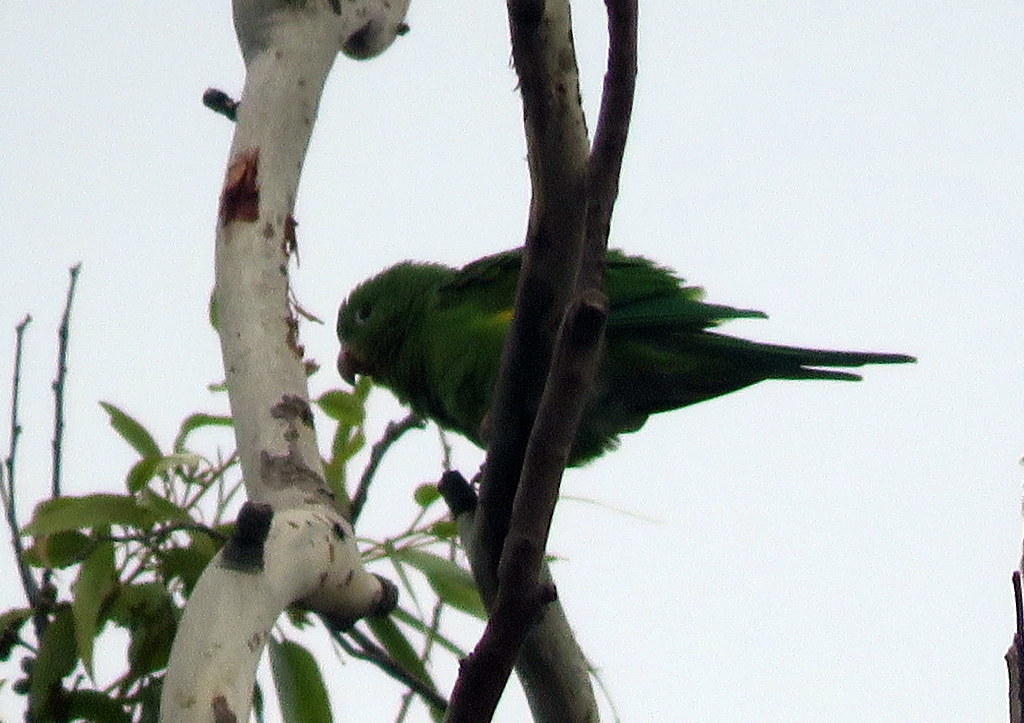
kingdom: Animalia
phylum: Chordata
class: Aves
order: Psittaciformes
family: Psittacidae
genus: Brotogeris
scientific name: Brotogeris chiriri
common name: Yellow-chevroned parakeet
